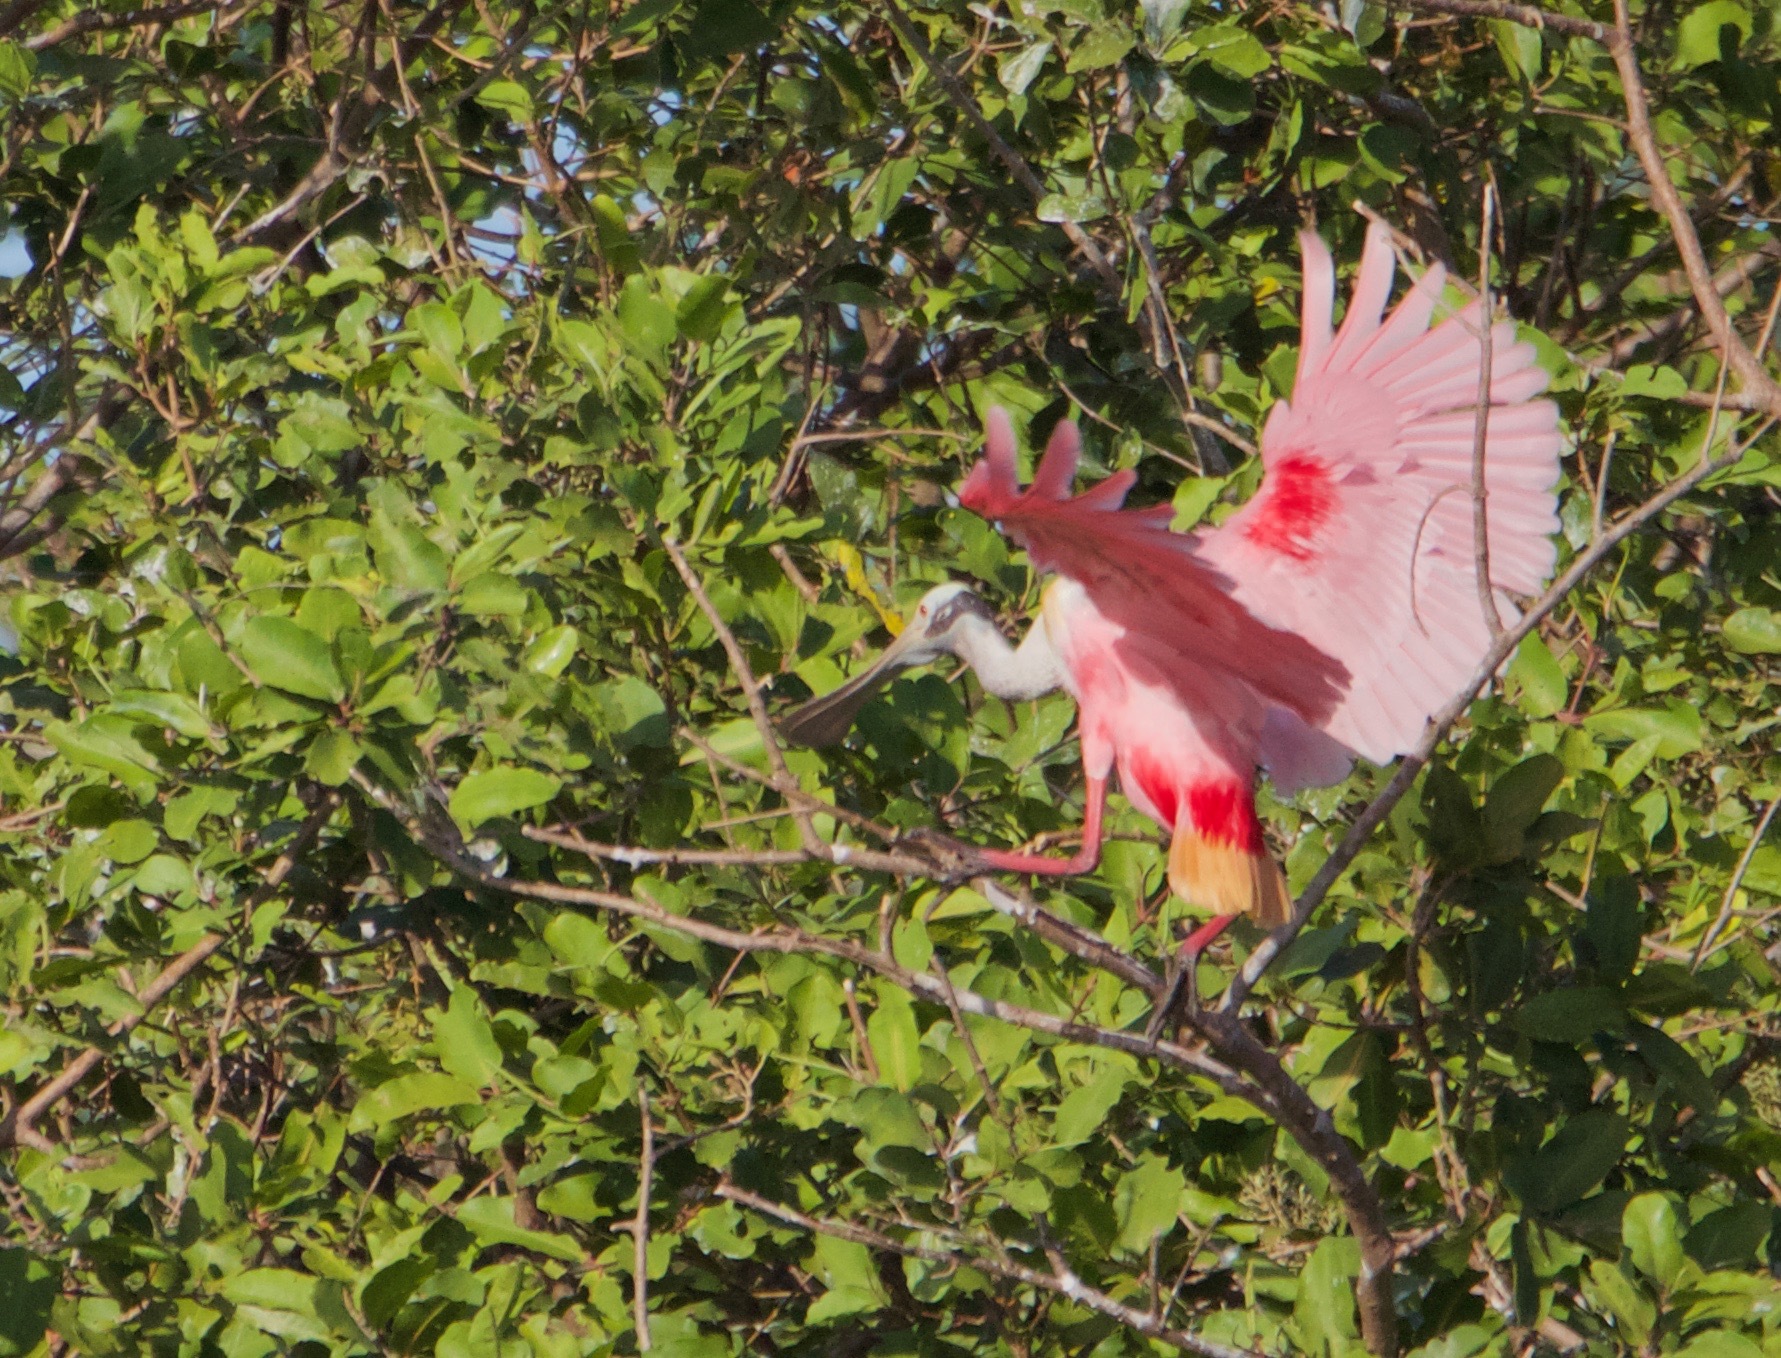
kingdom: Animalia
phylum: Chordata
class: Aves
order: Pelecaniformes
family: Threskiornithidae
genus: Platalea
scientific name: Platalea ajaja
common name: Roseate spoonbill
